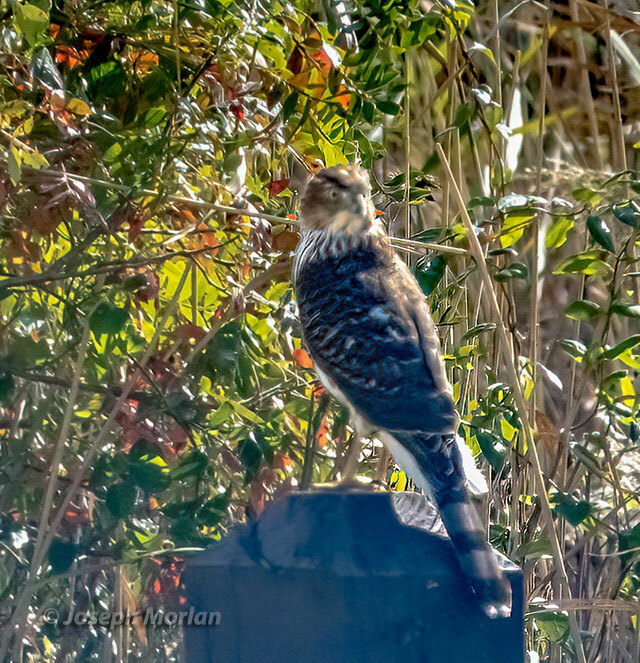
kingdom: Animalia
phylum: Chordata
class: Aves
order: Accipitriformes
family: Accipitridae
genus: Accipiter
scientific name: Accipiter cooperii
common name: Cooper's hawk
